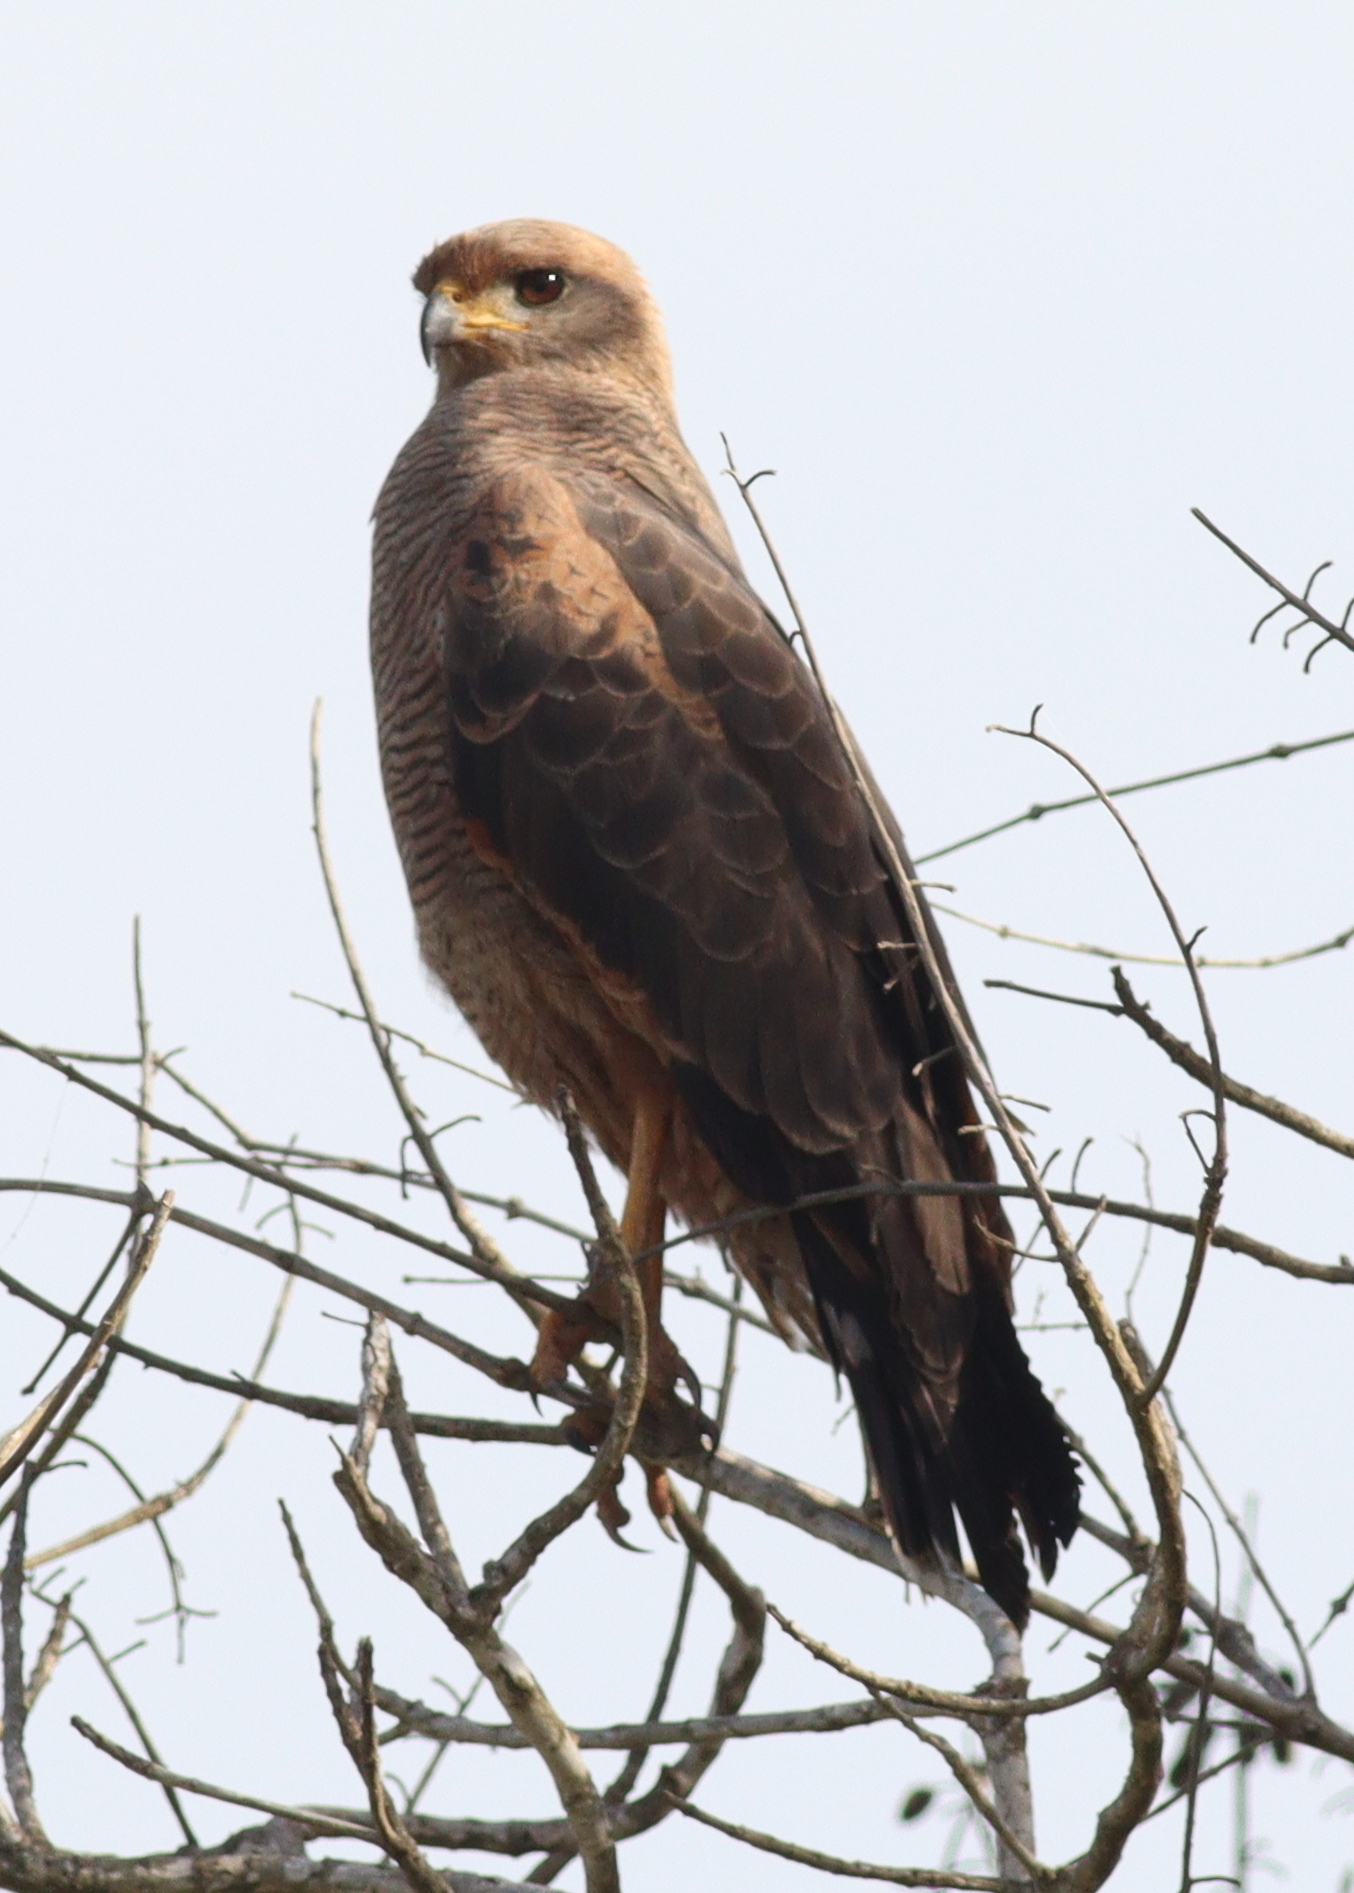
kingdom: Animalia
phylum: Chordata
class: Aves
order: Accipitriformes
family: Accipitridae
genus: Buteogallus
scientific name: Buteogallus meridionalis
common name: Savanna hawk
